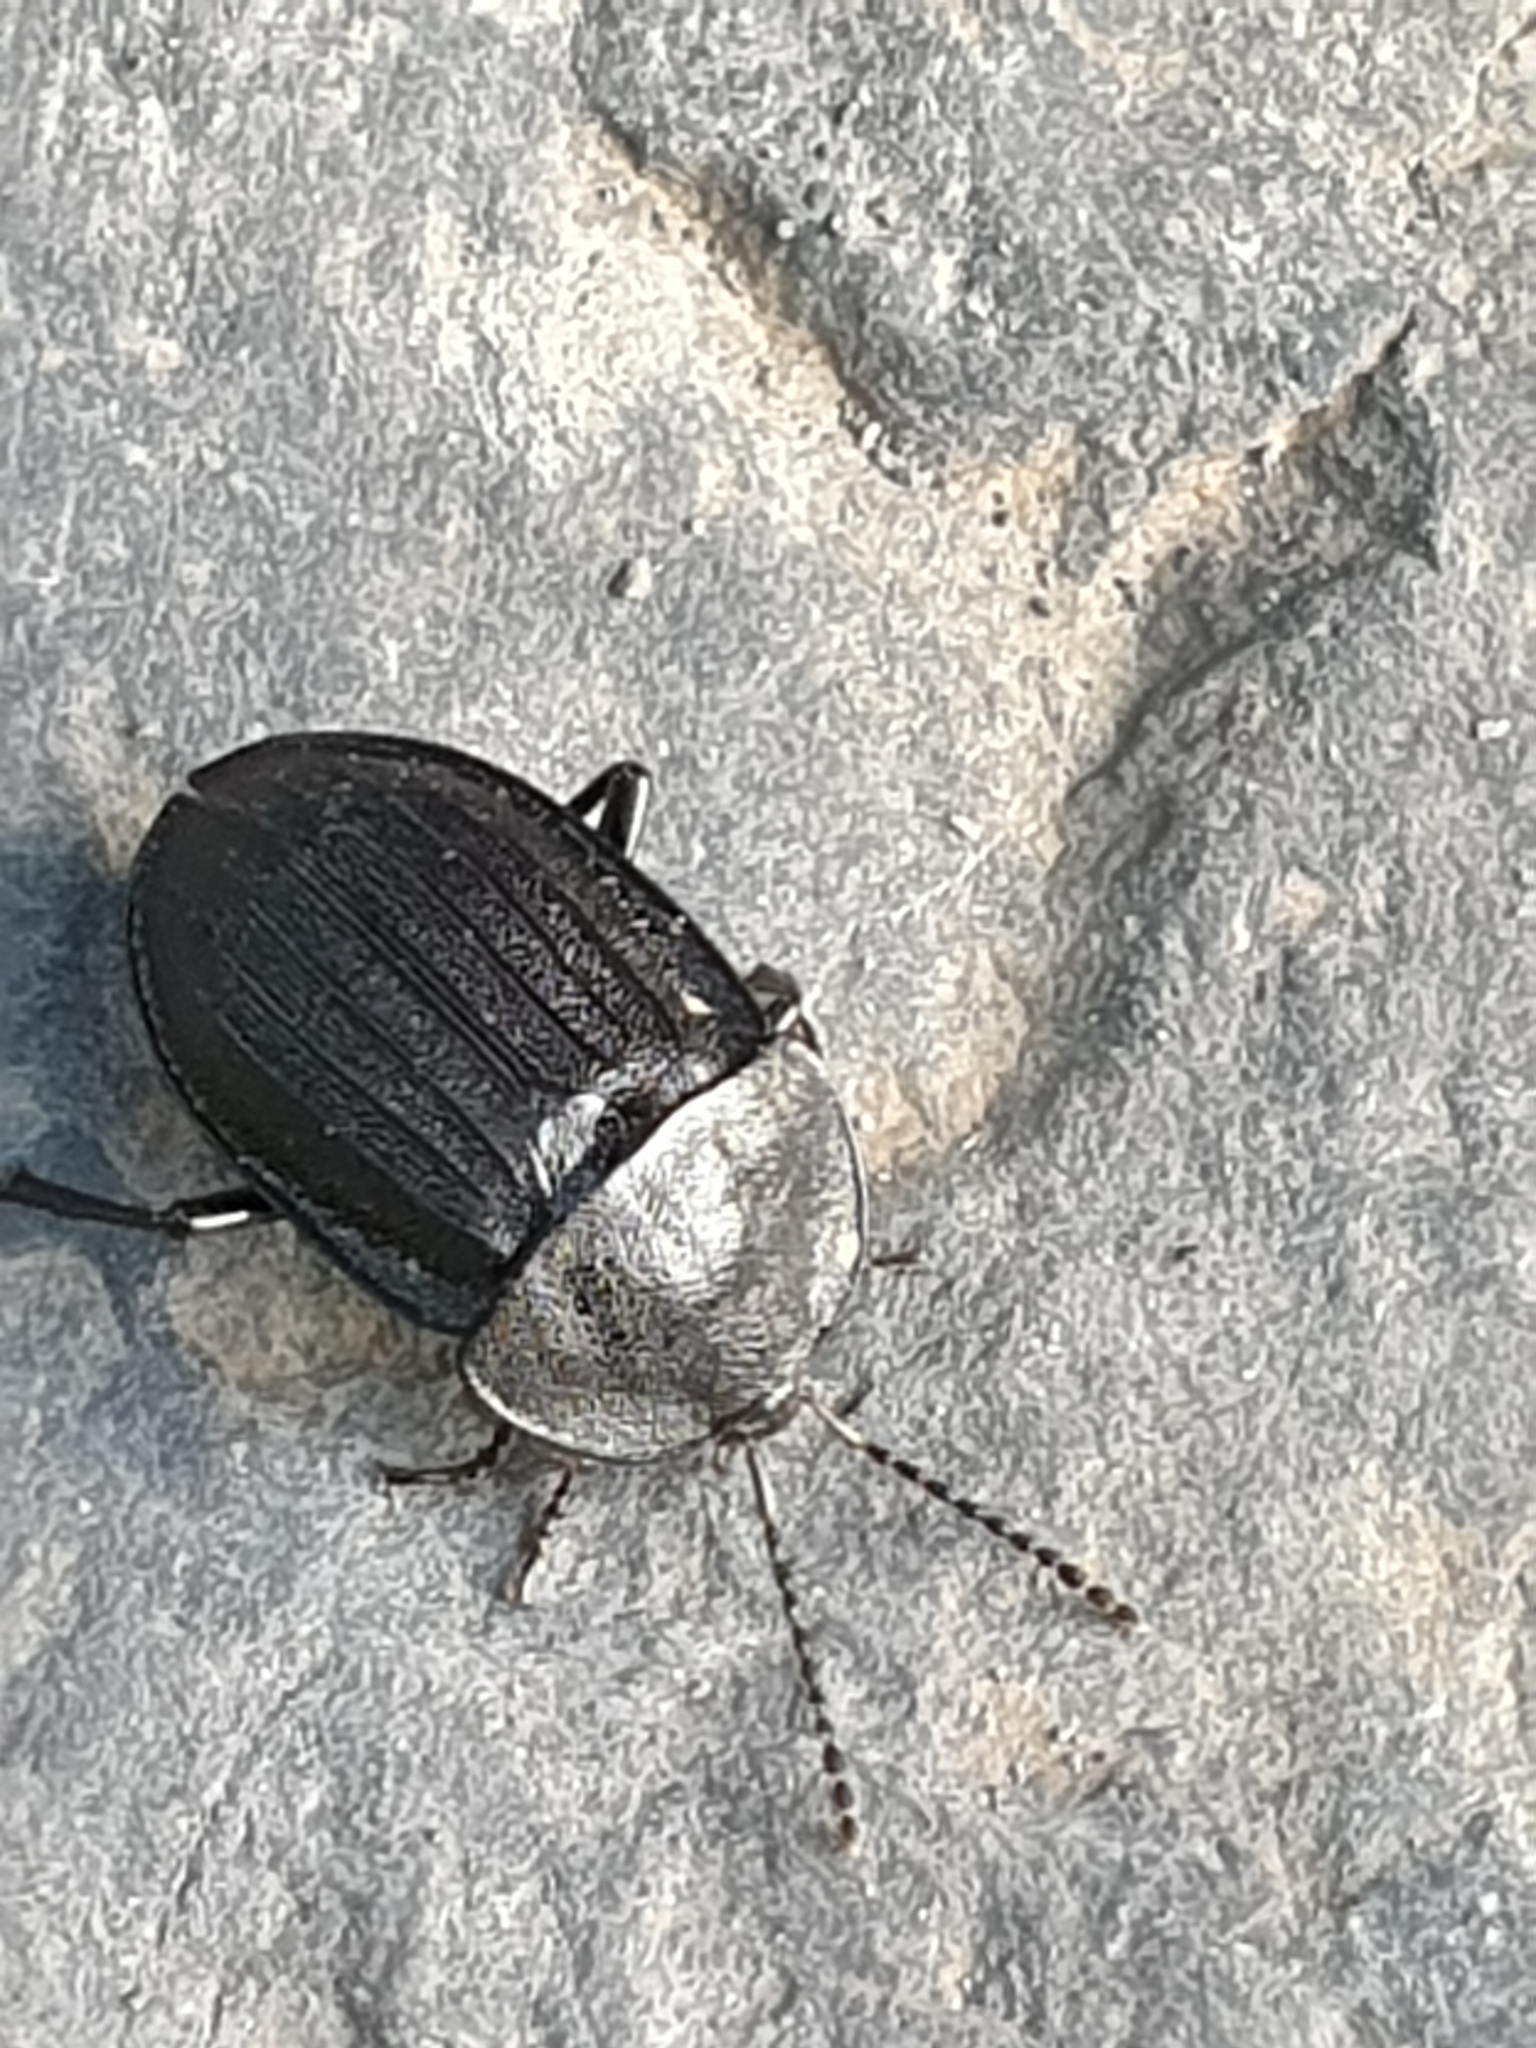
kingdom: Animalia
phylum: Arthropoda
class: Insecta
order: Coleoptera
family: Staphylinidae
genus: Silpha
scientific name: Silpha atrata
